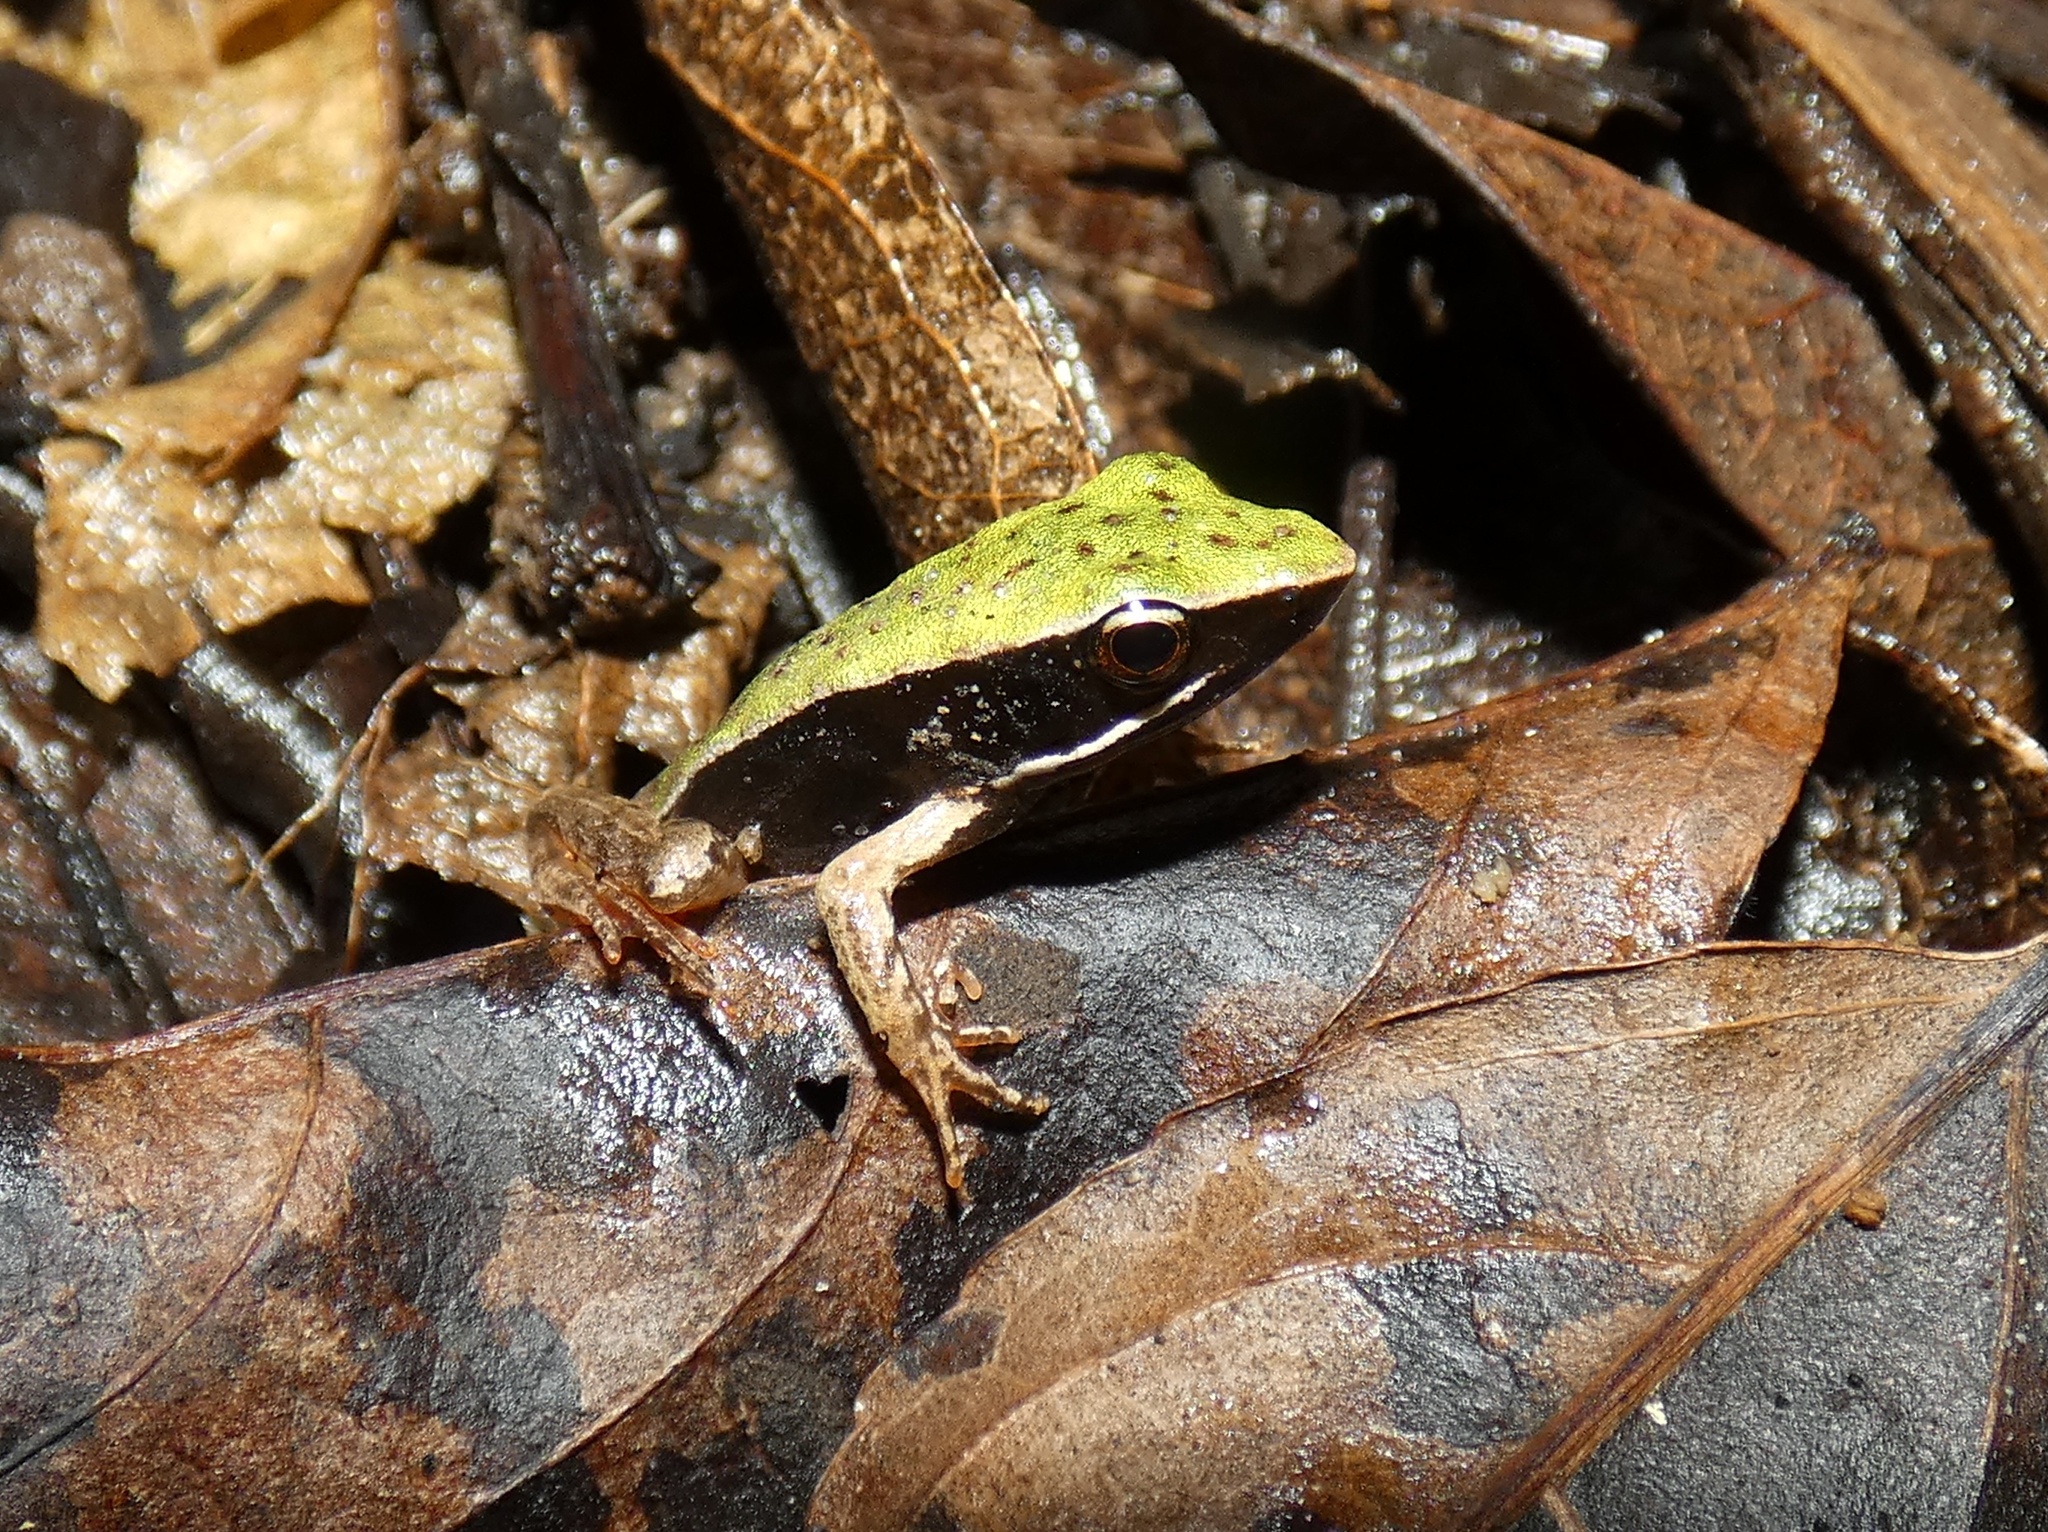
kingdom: Animalia
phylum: Chordata
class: Amphibia
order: Anura
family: Ranidae
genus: Lithobates
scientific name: Lithobates warszewitschii
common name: Warszewitsch's frog
